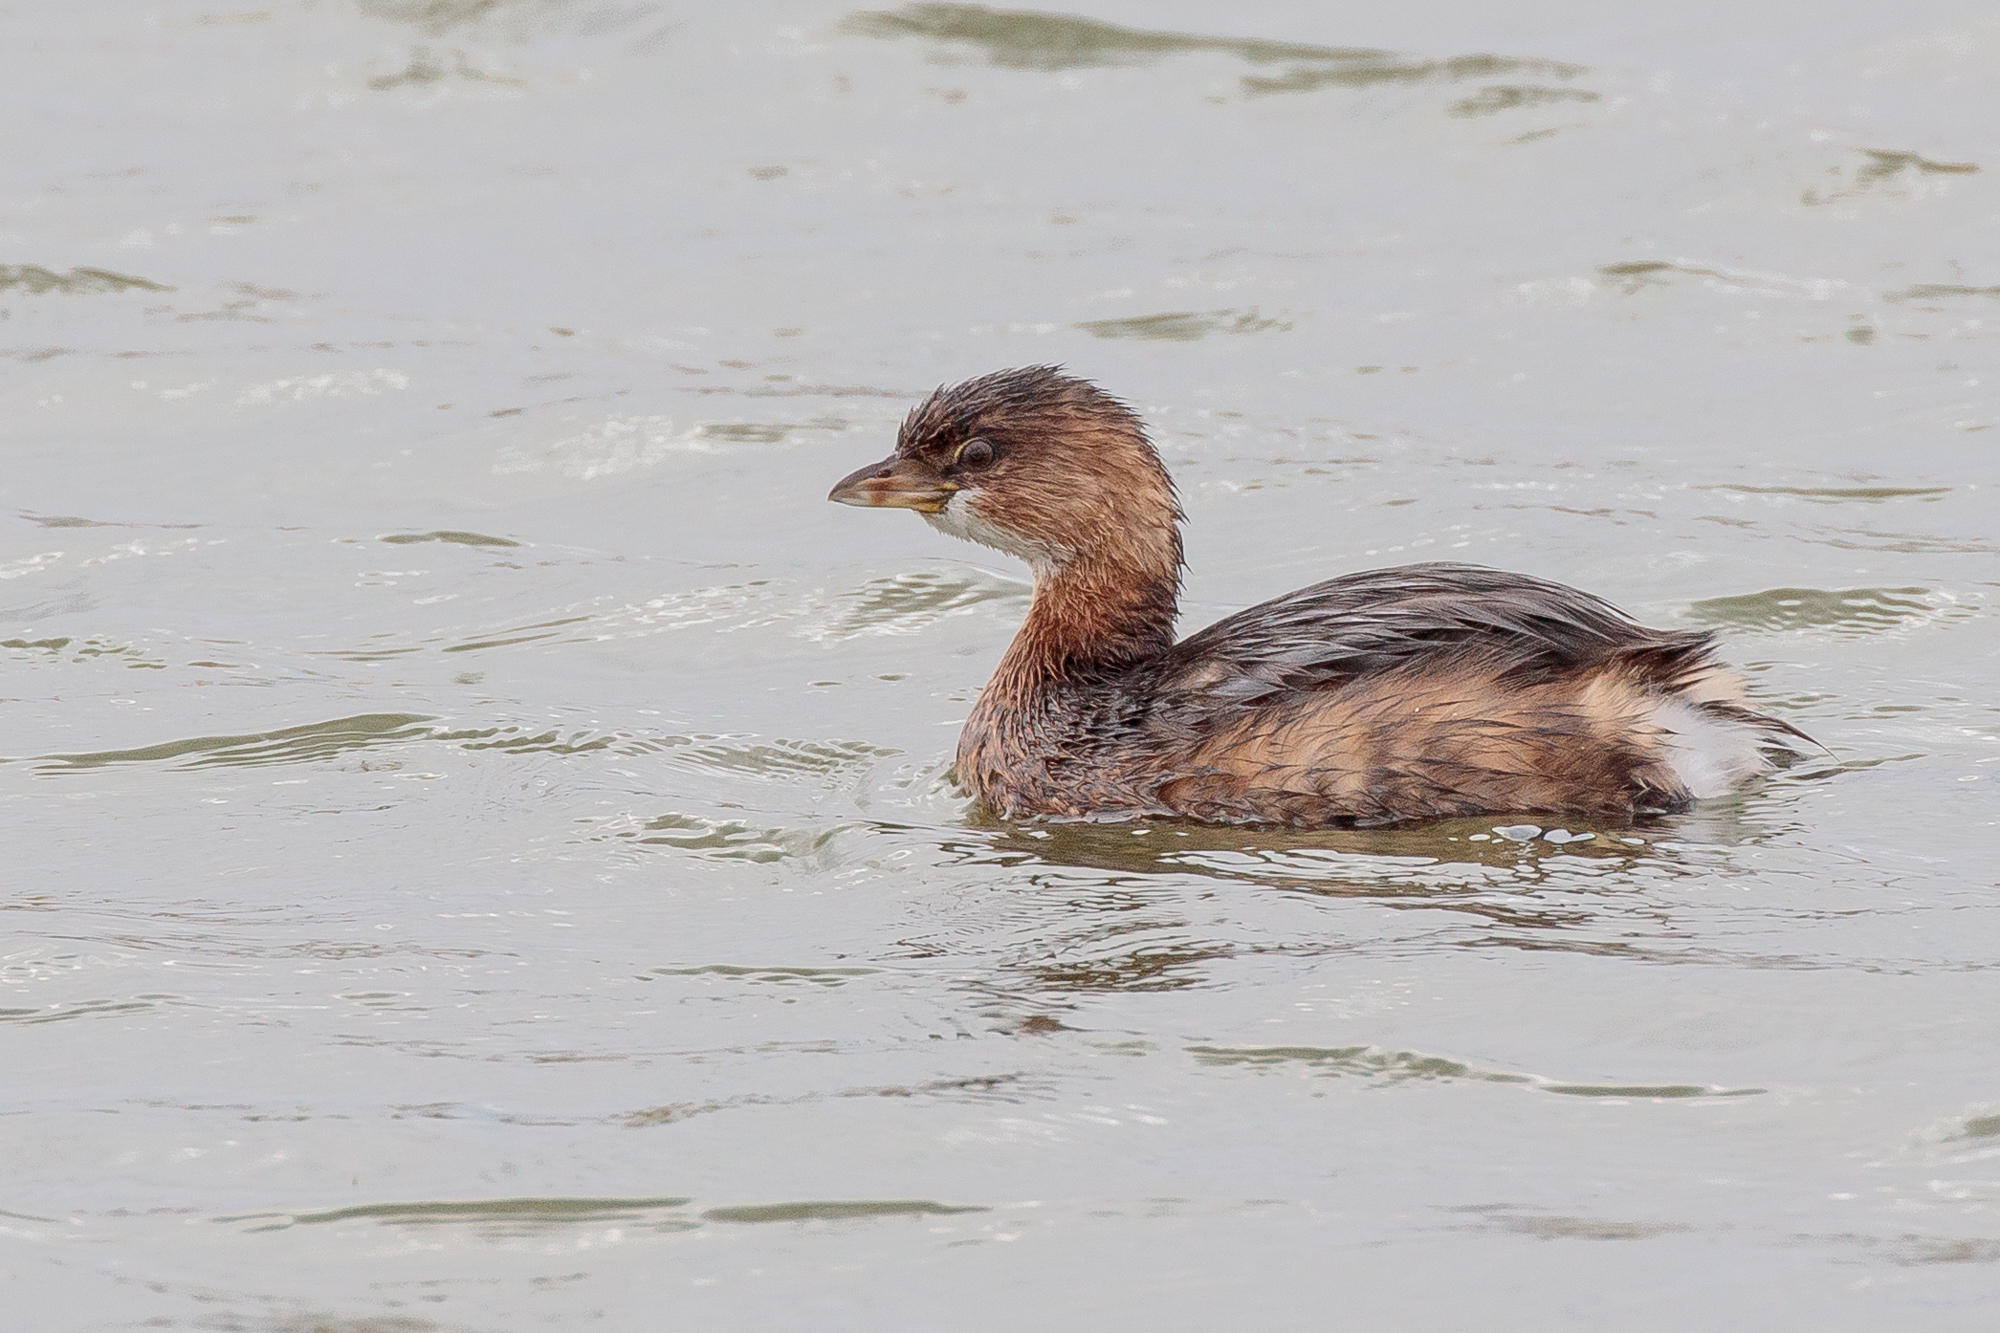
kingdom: Animalia
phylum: Chordata
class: Aves
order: Podicipediformes
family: Podicipedidae
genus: Podilymbus
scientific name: Podilymbus podiceps
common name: Pied-billed grebe
